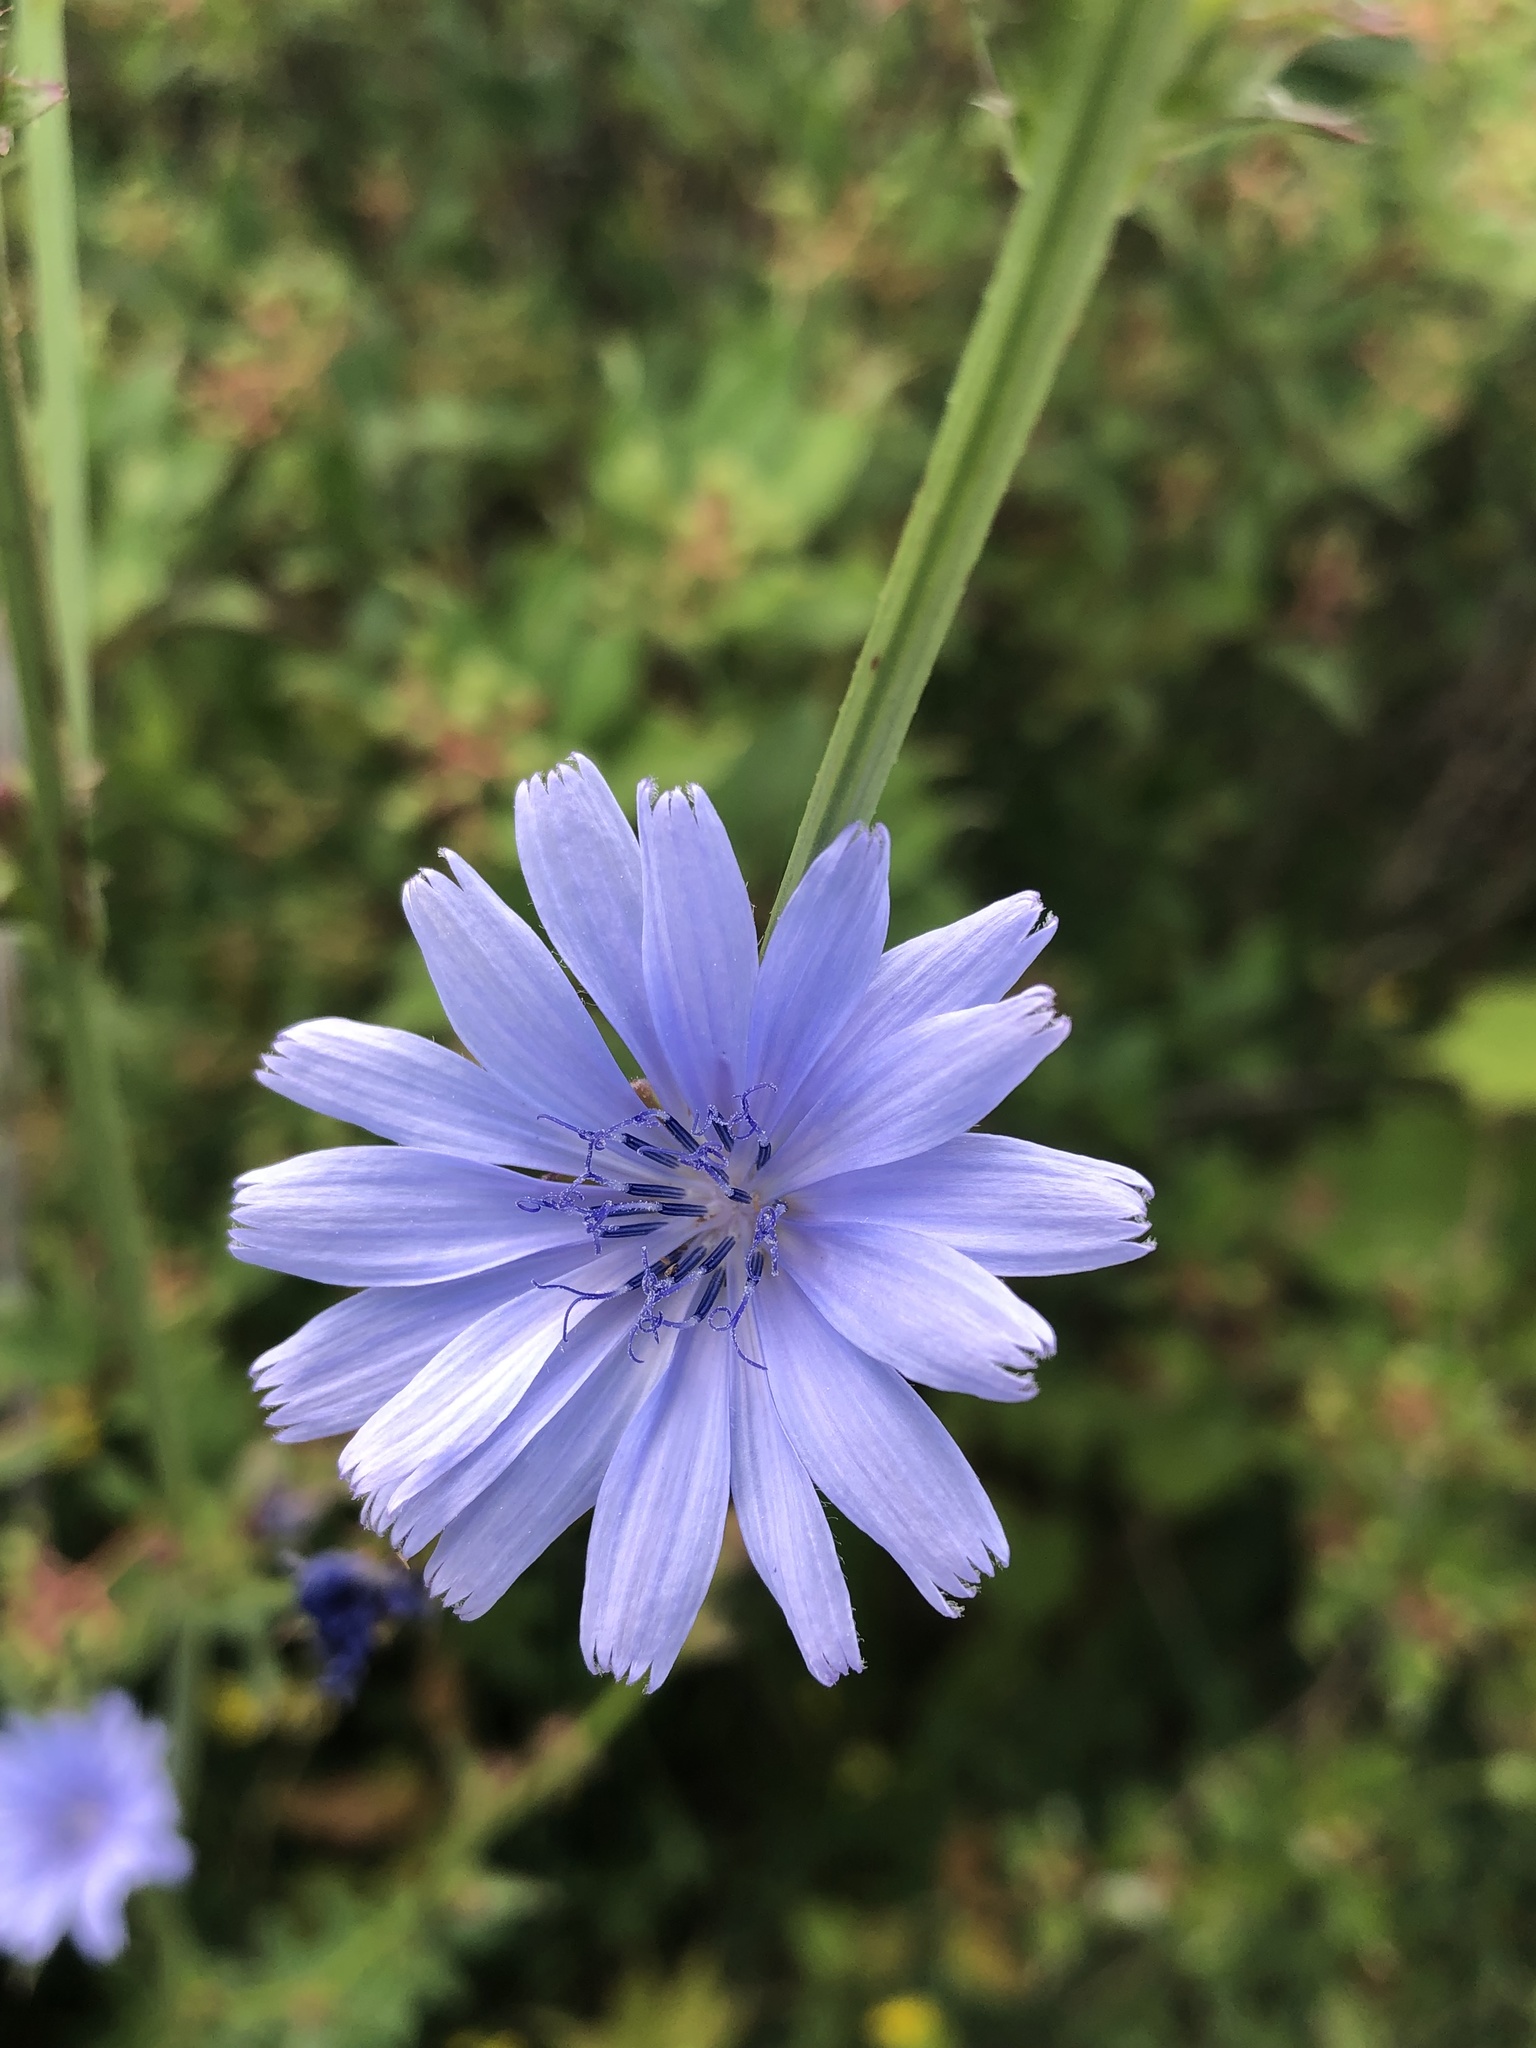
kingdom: Plantae
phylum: Tracheophyta
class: Magnoliopsida
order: Asterales
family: Asteraceae
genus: Cichorium
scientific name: Cichorium intybus
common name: Chicory
